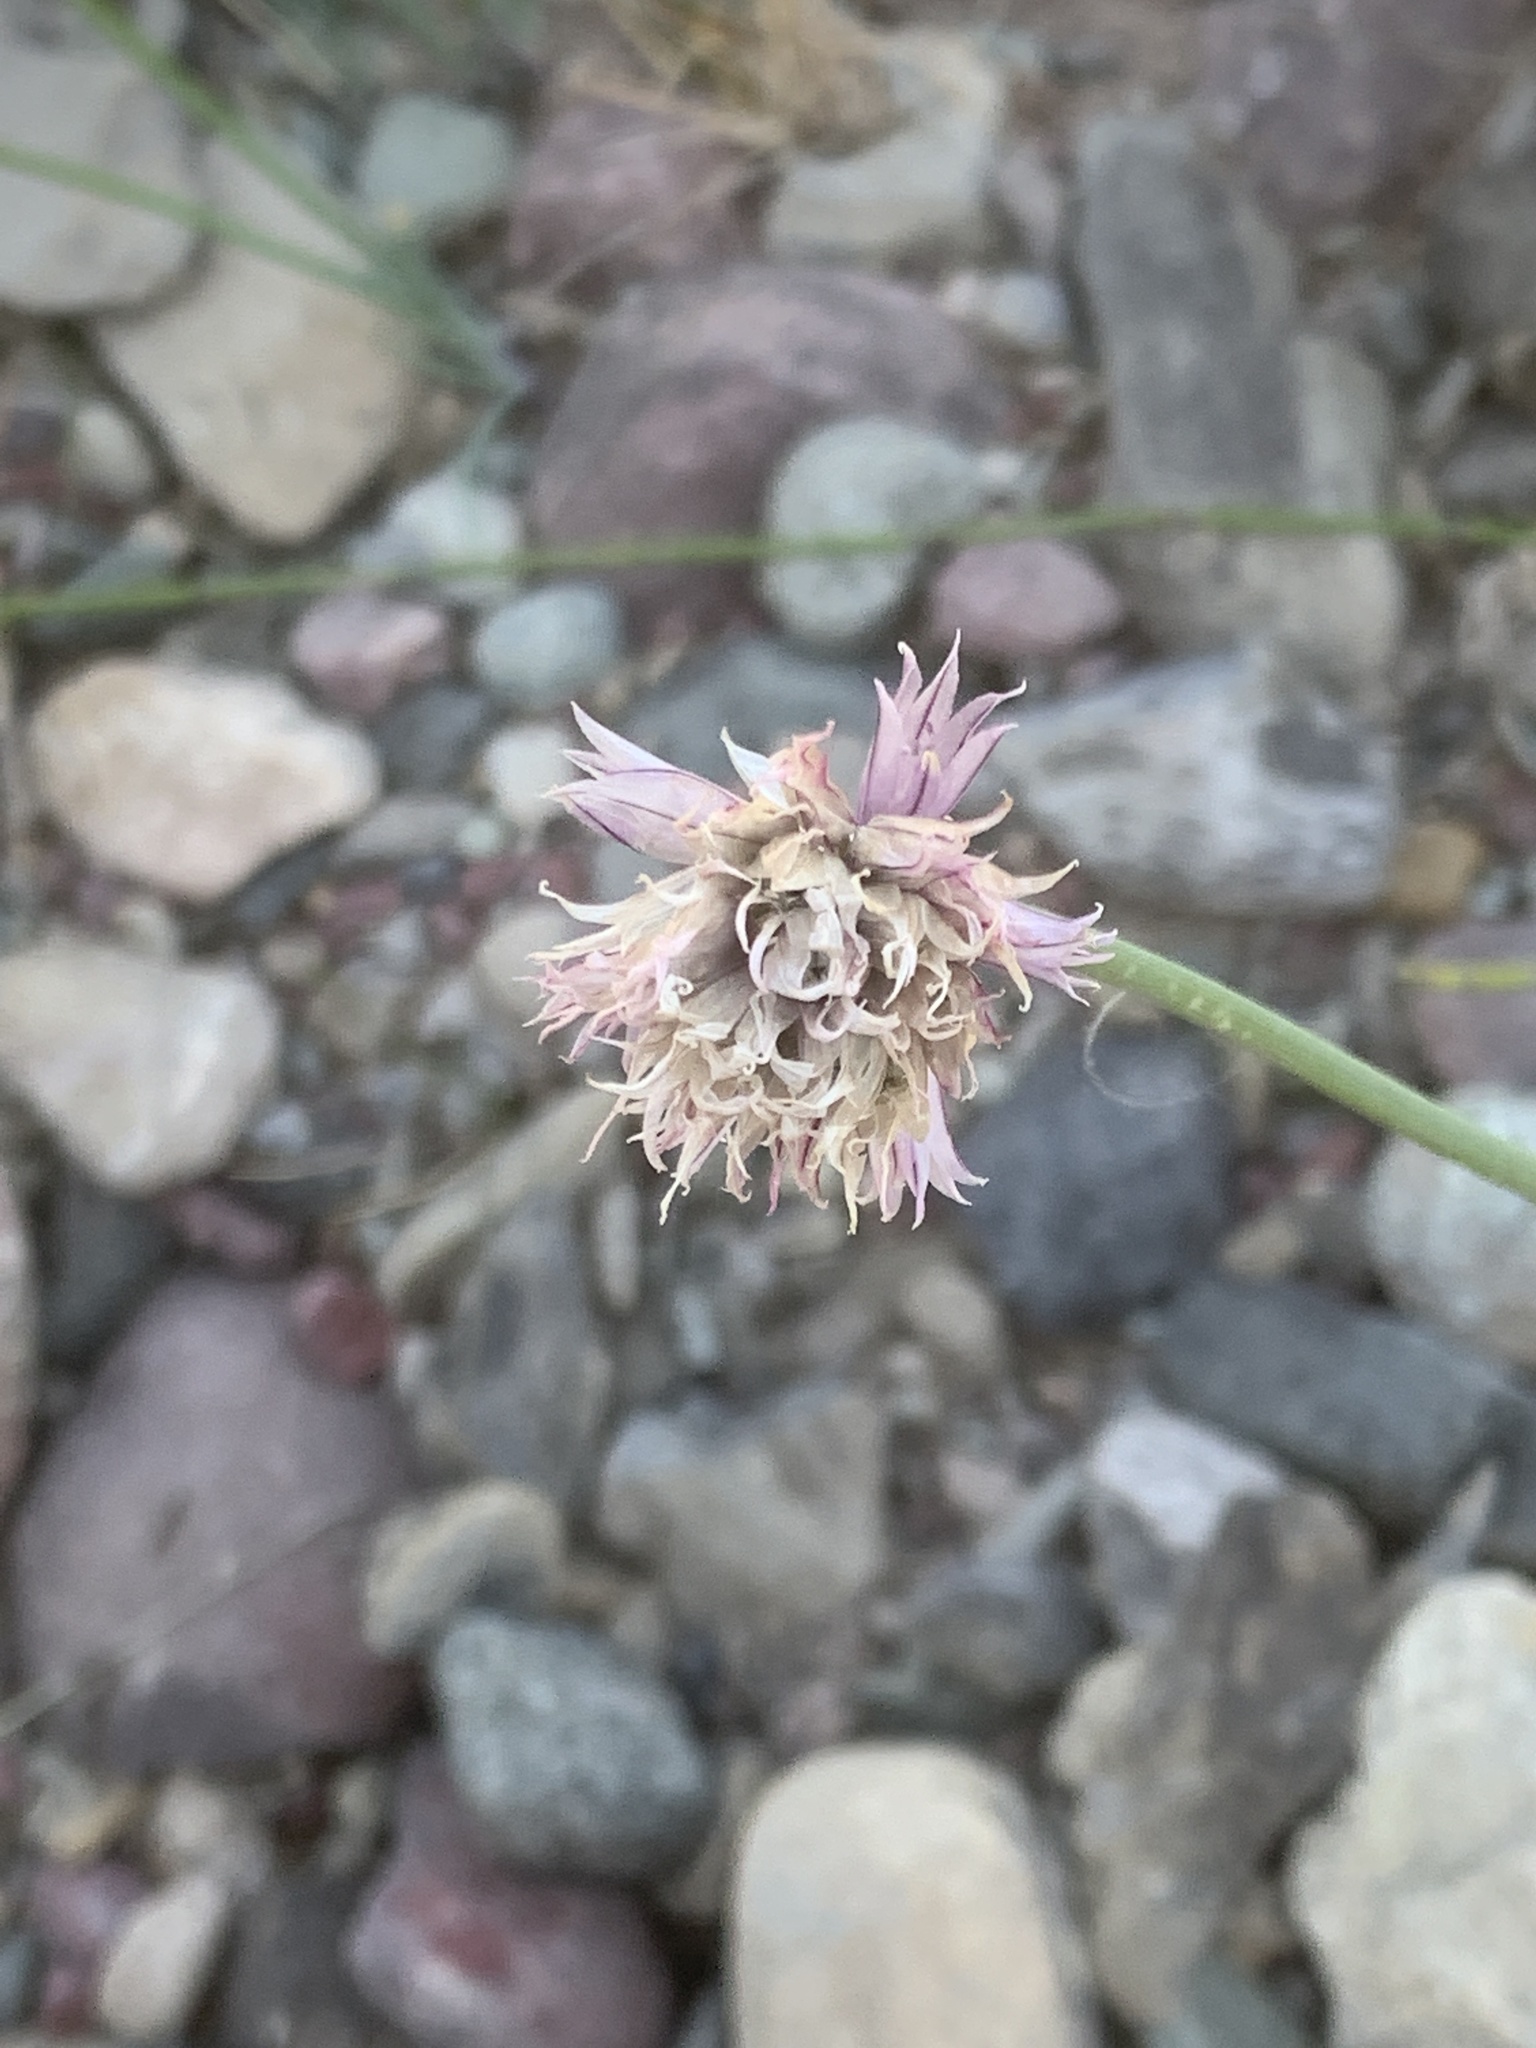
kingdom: Plantae
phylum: Tracheophyta
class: Liliopsida
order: Asparagales
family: Amaryllidaceae
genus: Allium
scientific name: Allium schoenoprasum
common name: Chives
